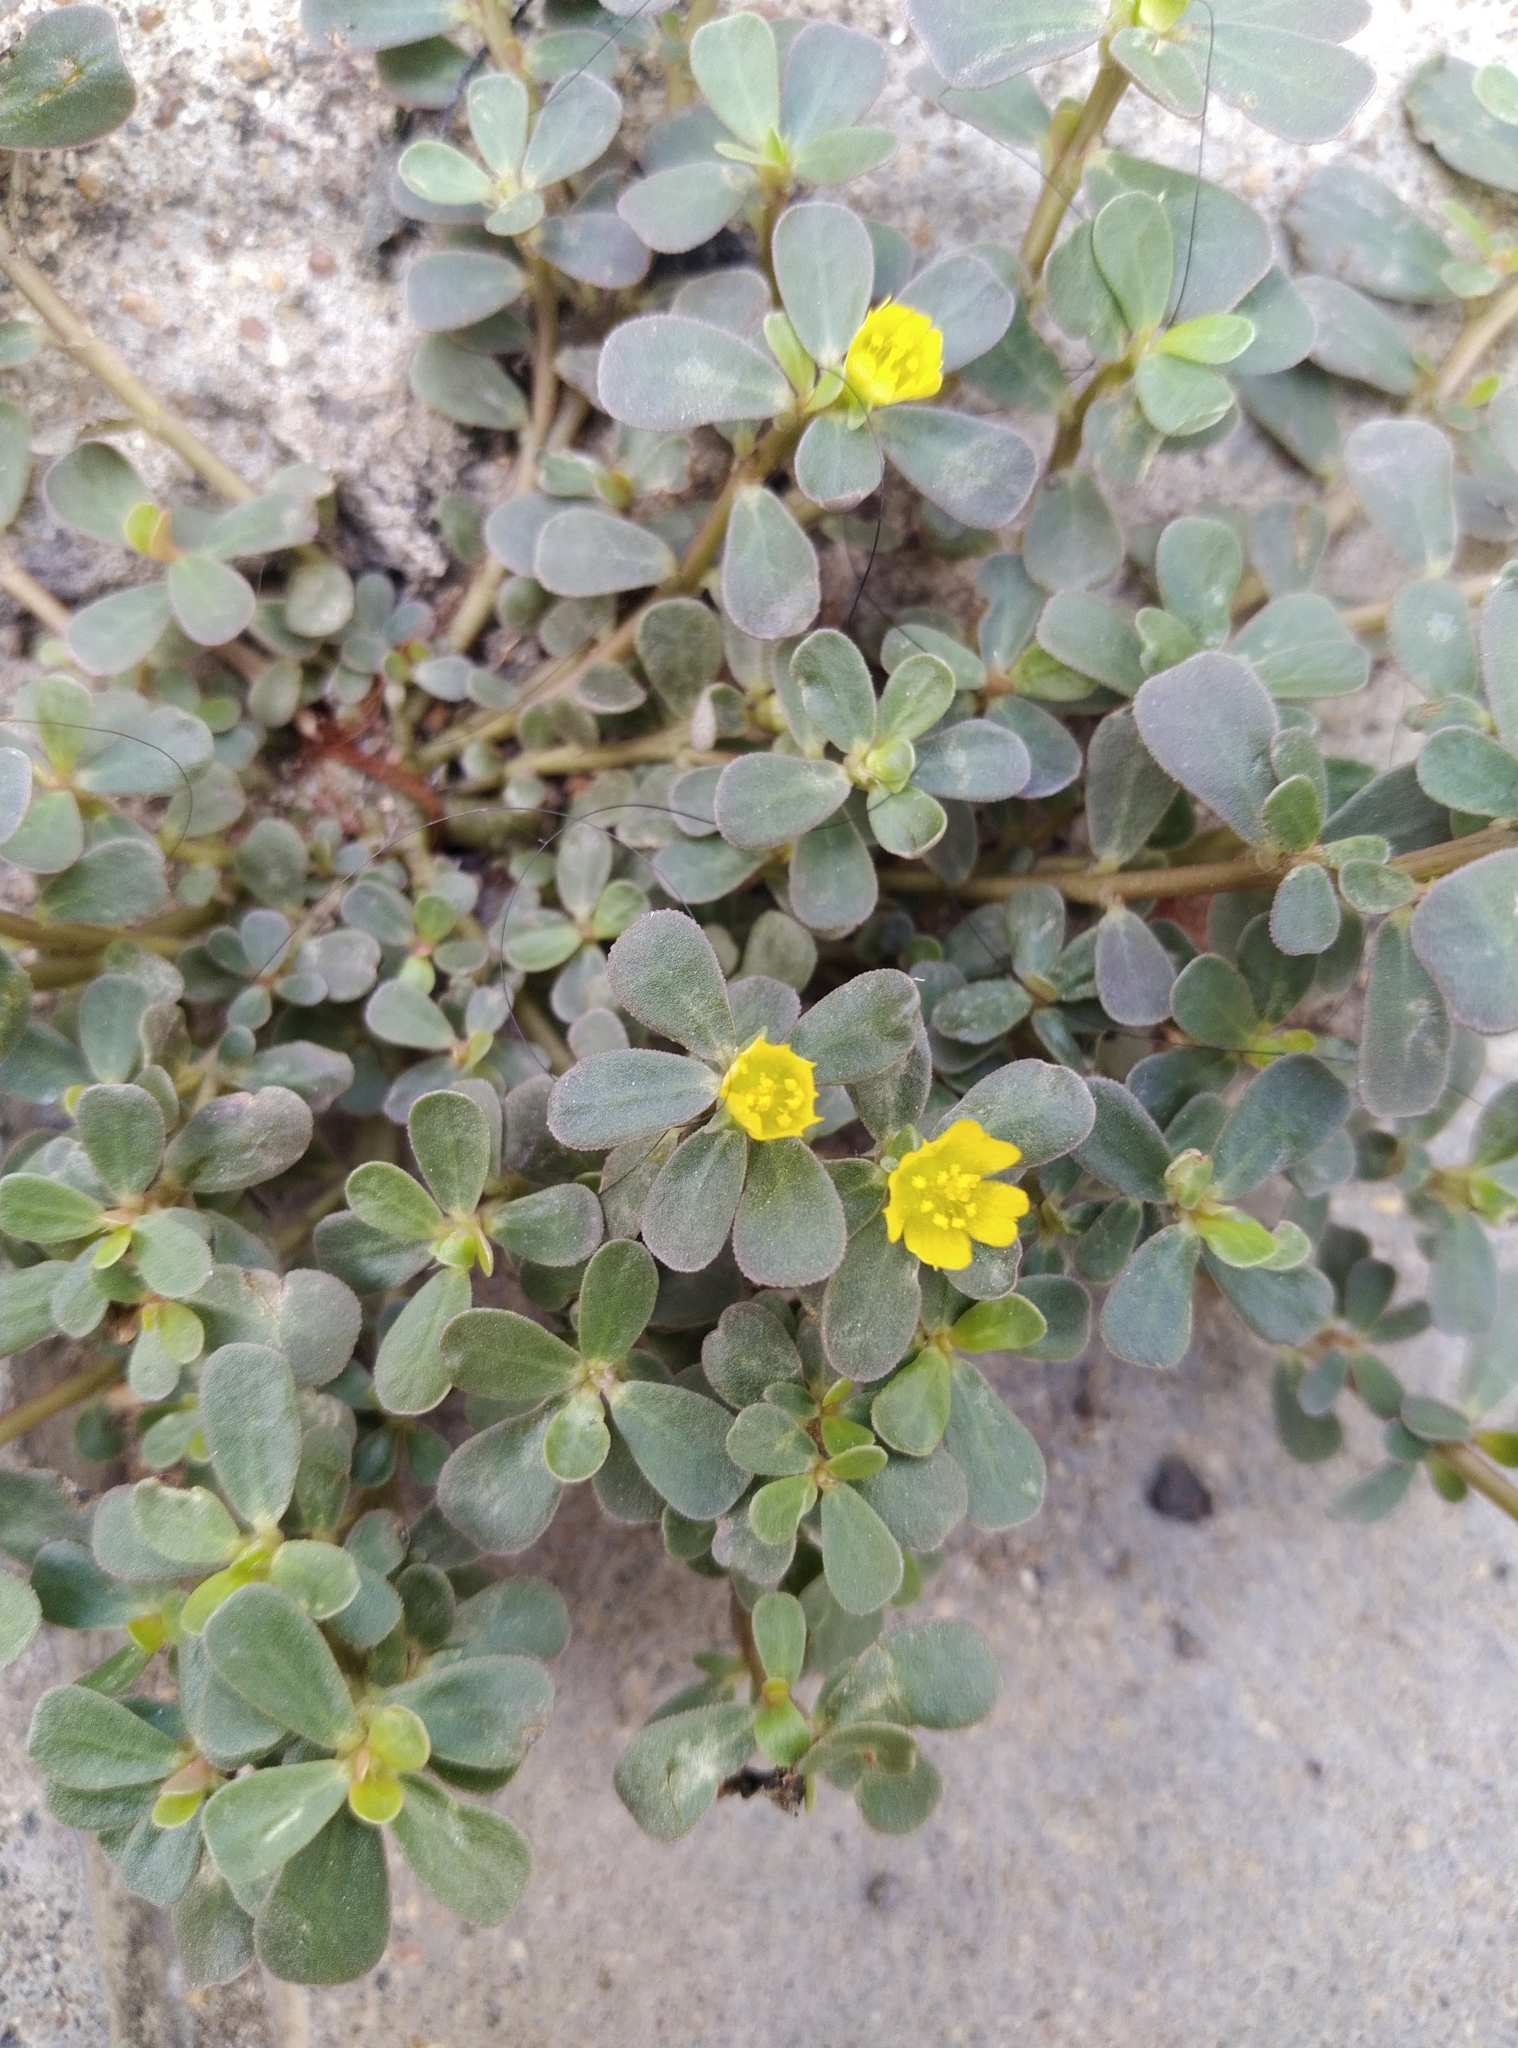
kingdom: Plantae
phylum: Tracheophyta
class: Magnoliopsida
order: Caryophyllales
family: Portulacaceae
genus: Portulaca
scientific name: Portulaca oleracea
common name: Common purslane
